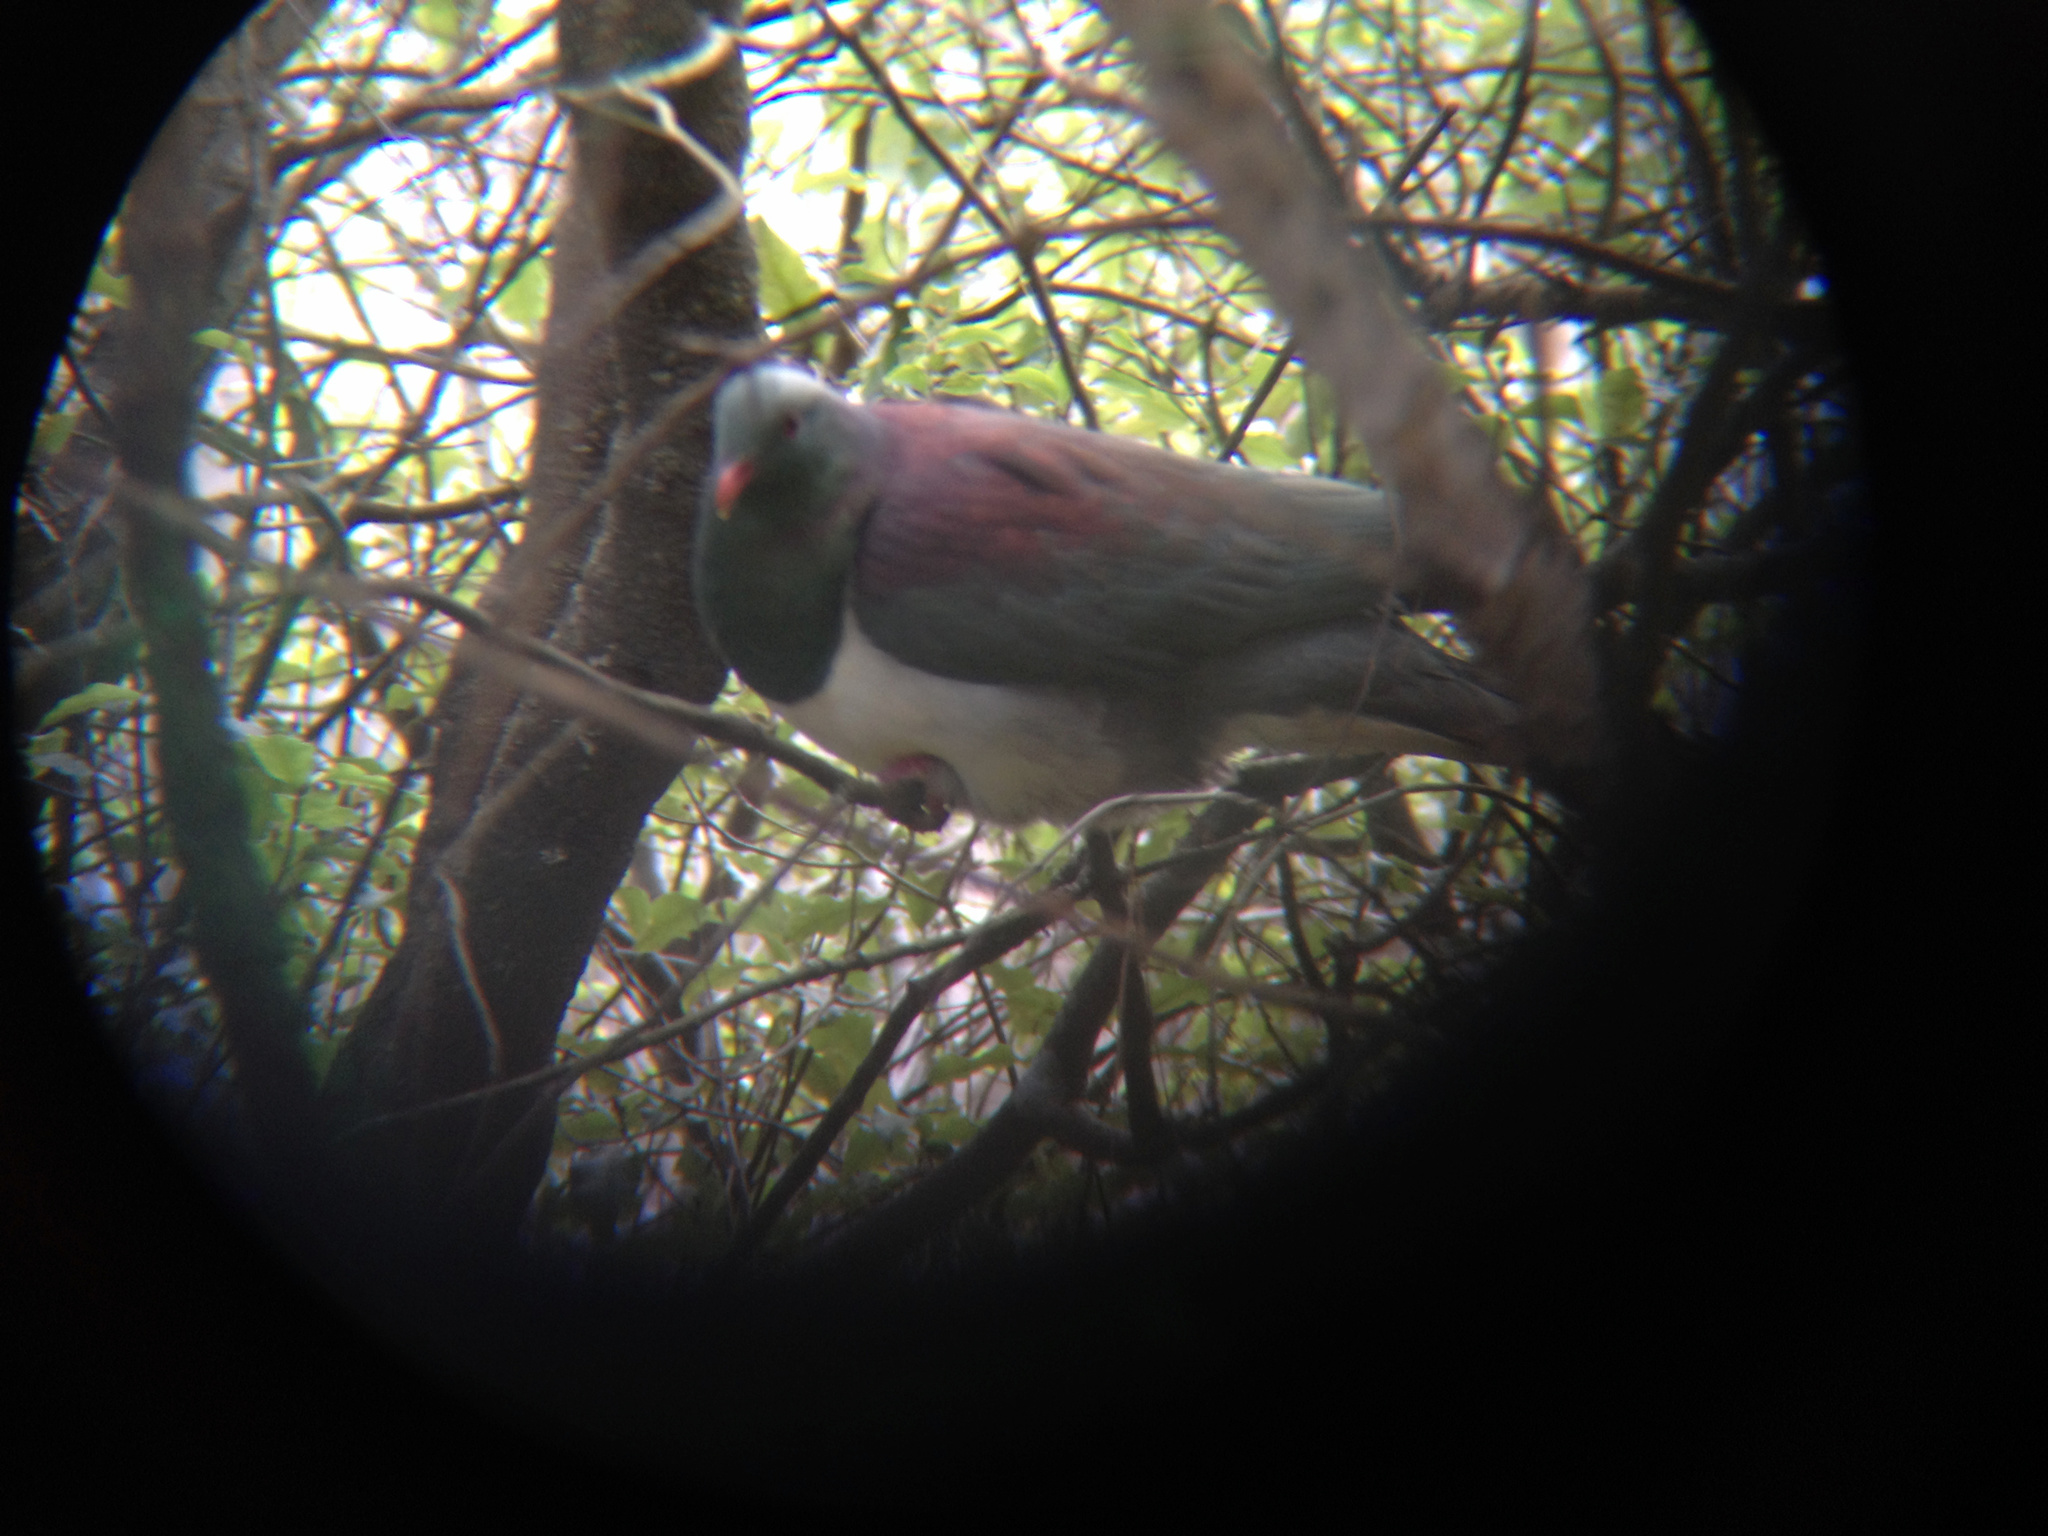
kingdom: Animalia
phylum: Chordata
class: Aves
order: Columbiformes
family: Columbidae
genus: Hemiphaga
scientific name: Hemiphaga novaeseelandiae
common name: New zealand pigeon
